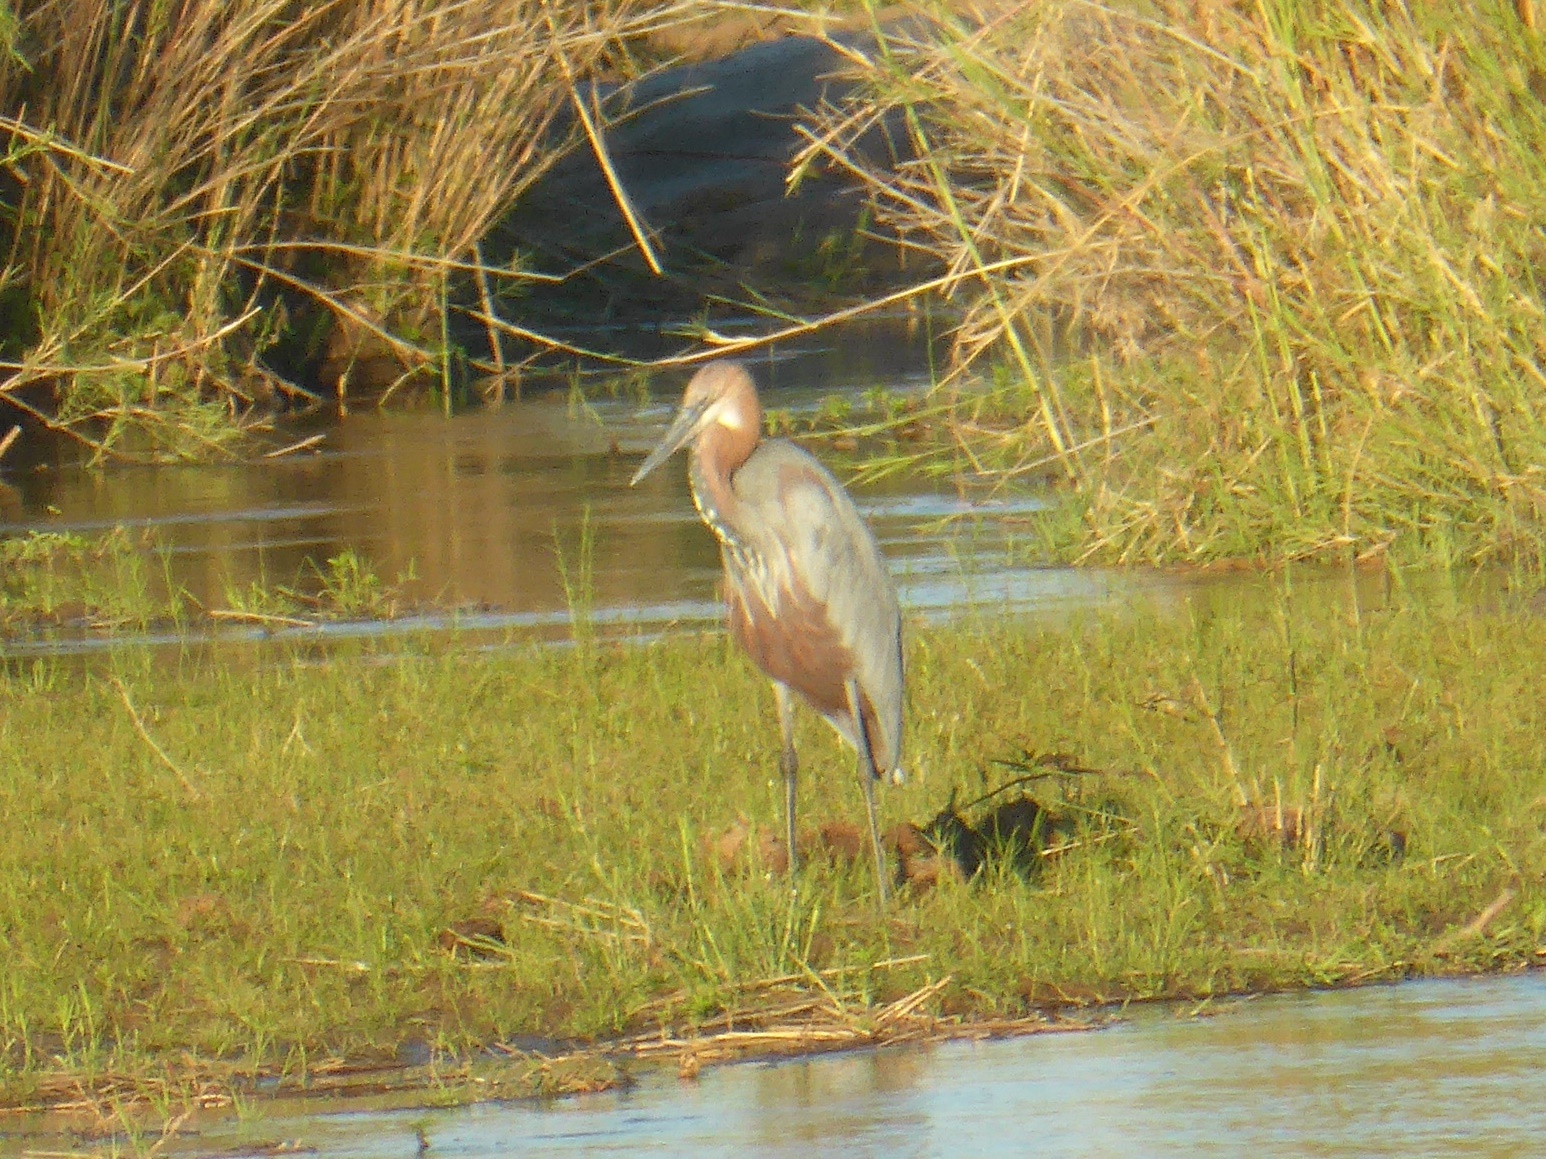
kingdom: Animalia
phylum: Chordata
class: Aves
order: Pelecaniformes
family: Ardeidae
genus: Ardea
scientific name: Ardea goliath
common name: Goliath heron
